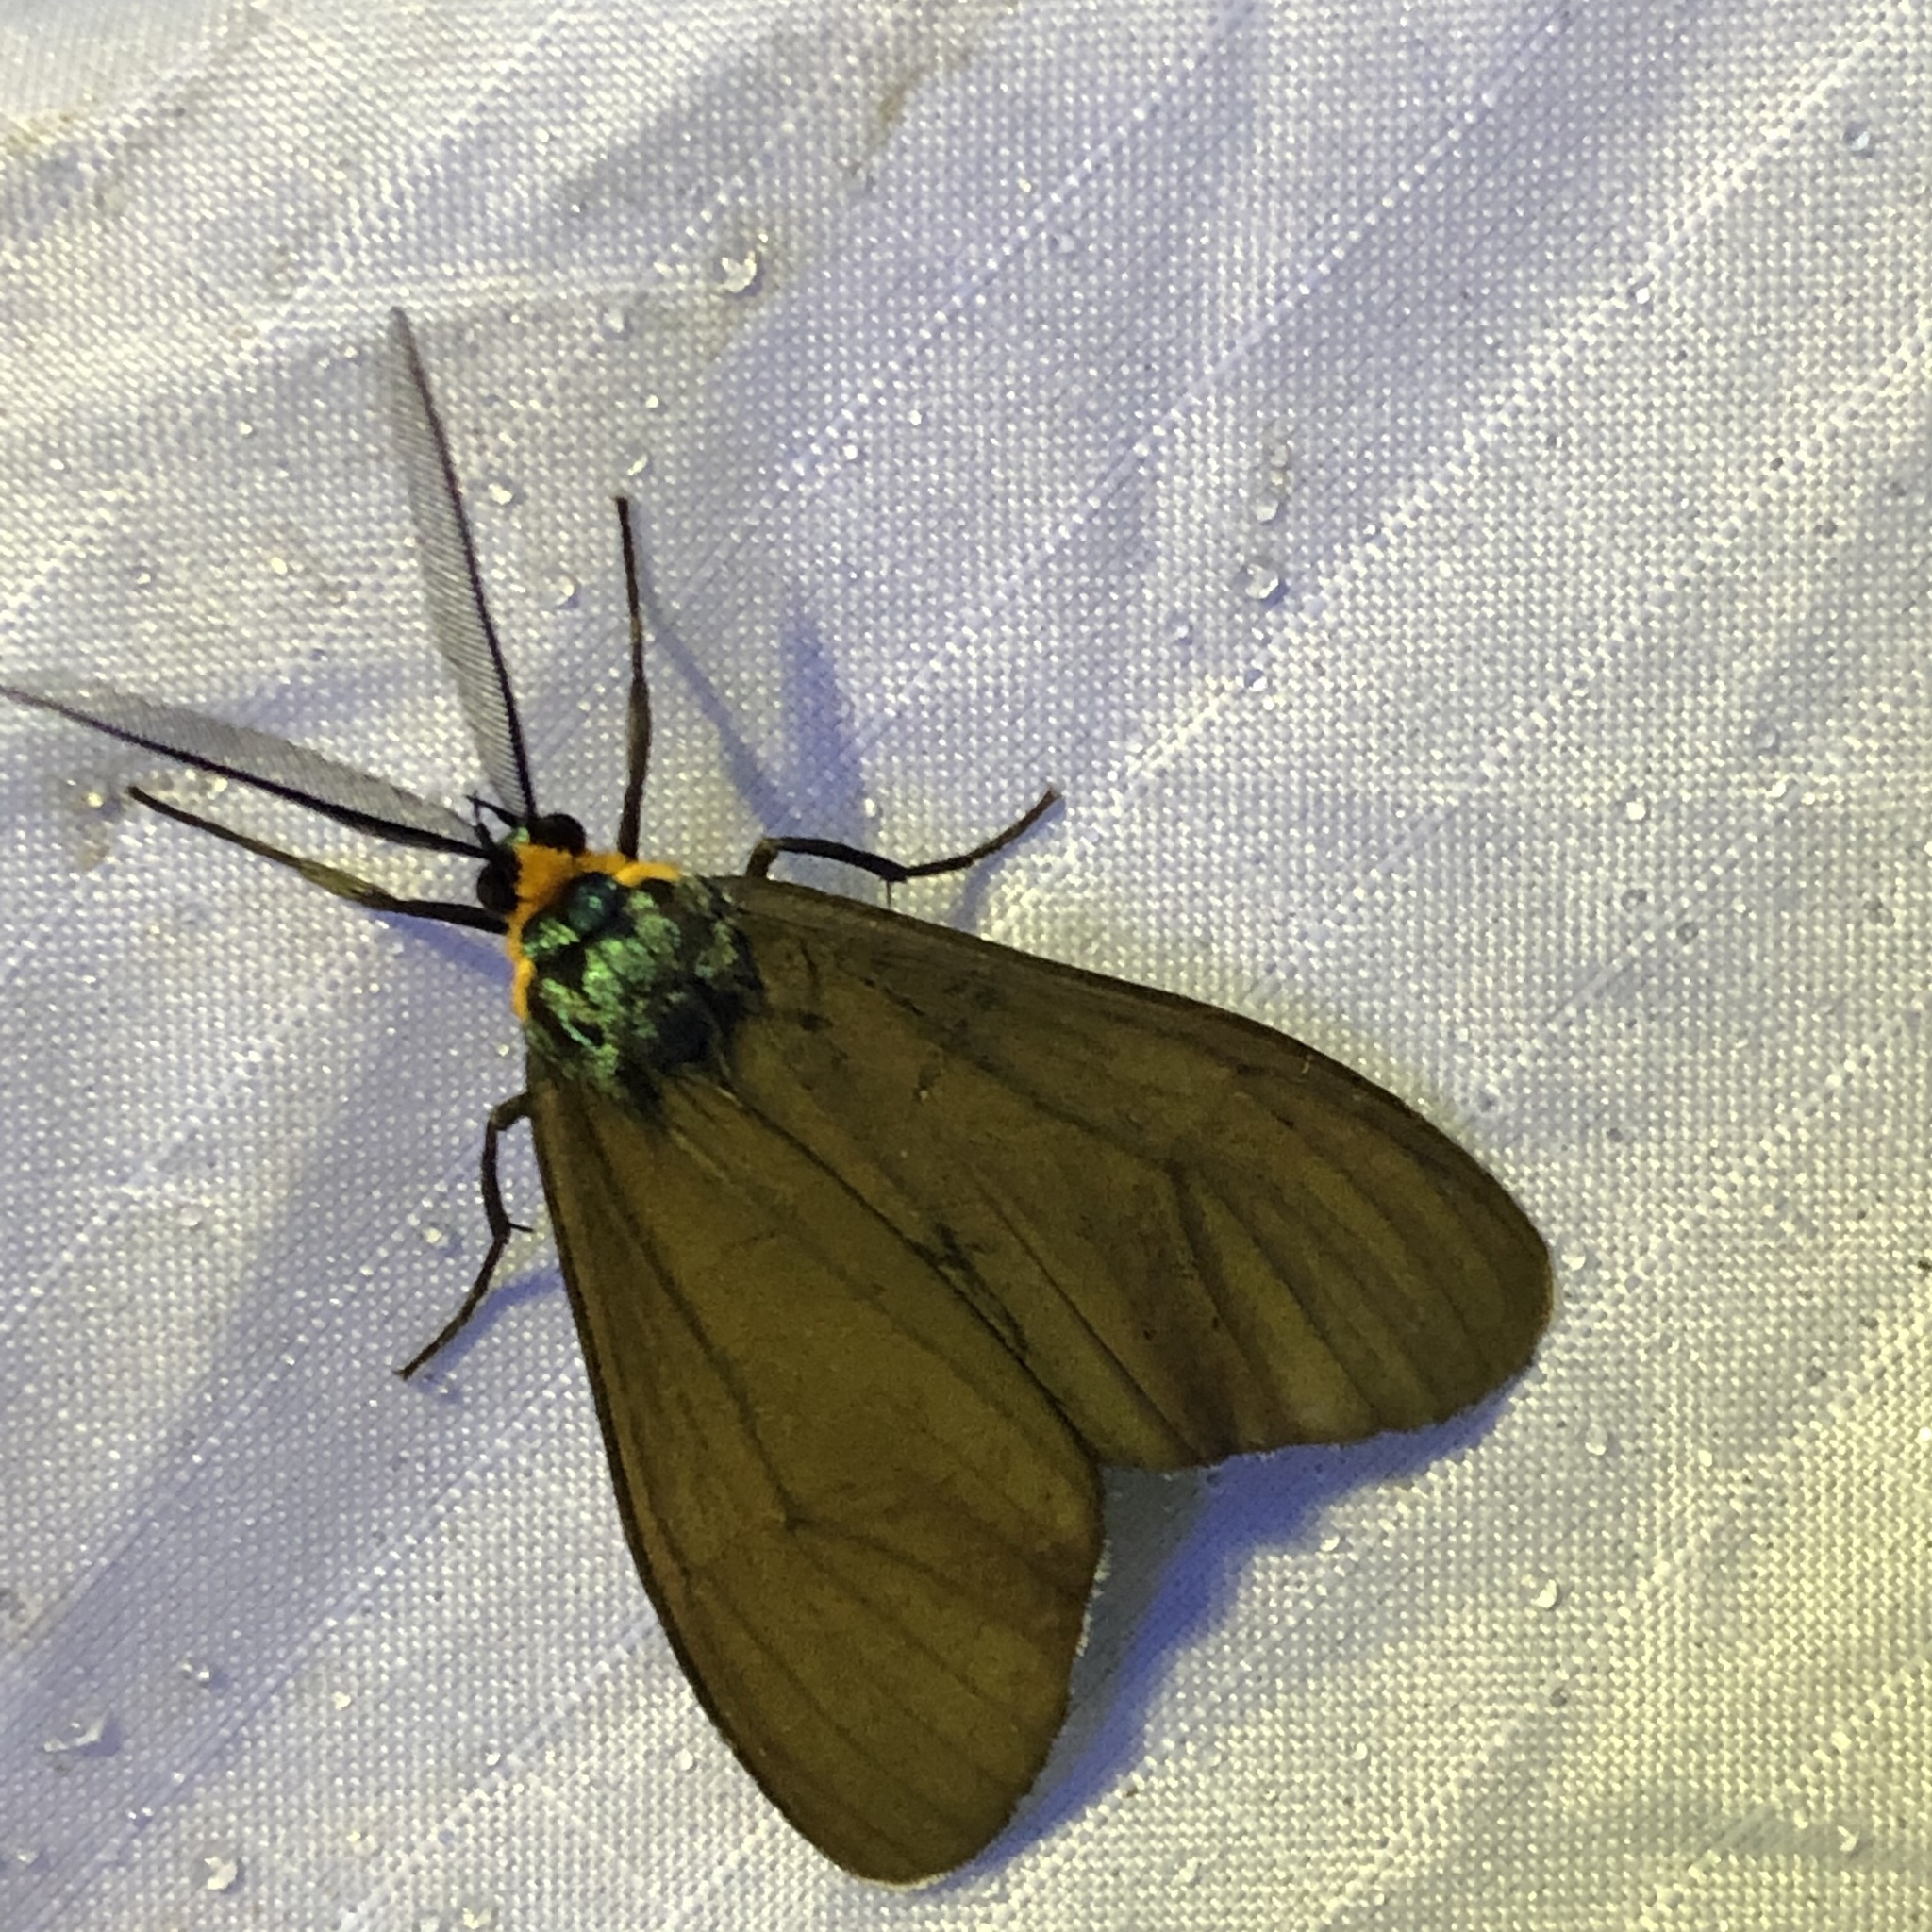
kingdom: Animalia
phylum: Arthropoda
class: Insecta
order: Lepidoptera
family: Erebidae
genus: Ctenucha
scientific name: Ctenucha virginica
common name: Virginia ctenucha moth
